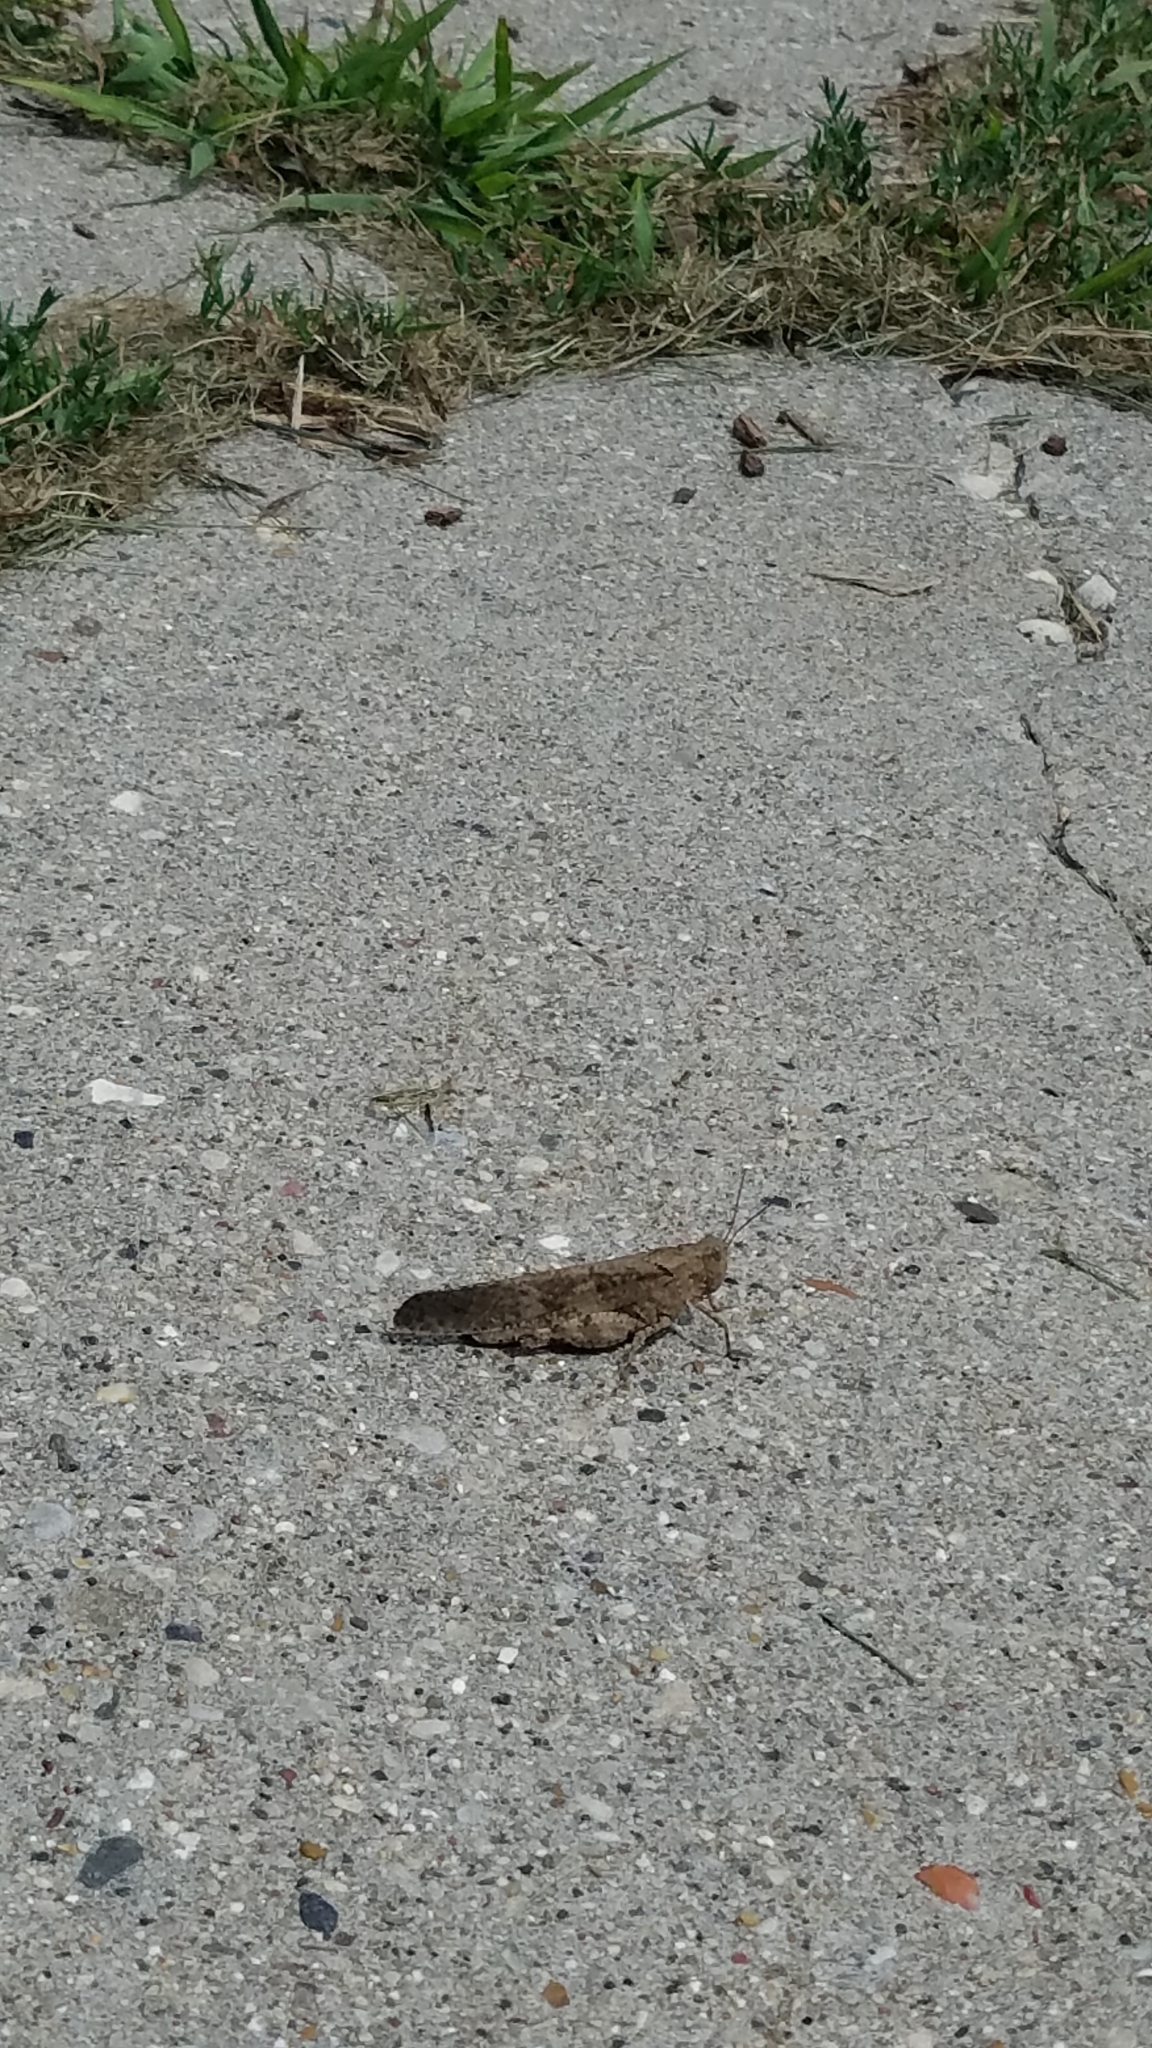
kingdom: Animalia
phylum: Arthropoda
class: Insecta
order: Orthoptera
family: Acrididae
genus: Dissosteira
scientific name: Dissosteira carolina
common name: Carolina grasshopper
